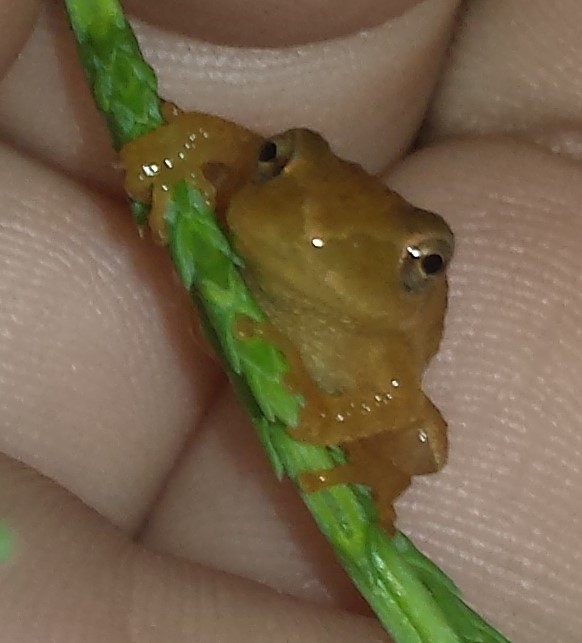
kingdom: Animalia
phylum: Chordata
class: Amphibia
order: Anura
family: Hylidae
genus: Pseudacris
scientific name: Pseudacris crucifer
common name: Spring peeper
